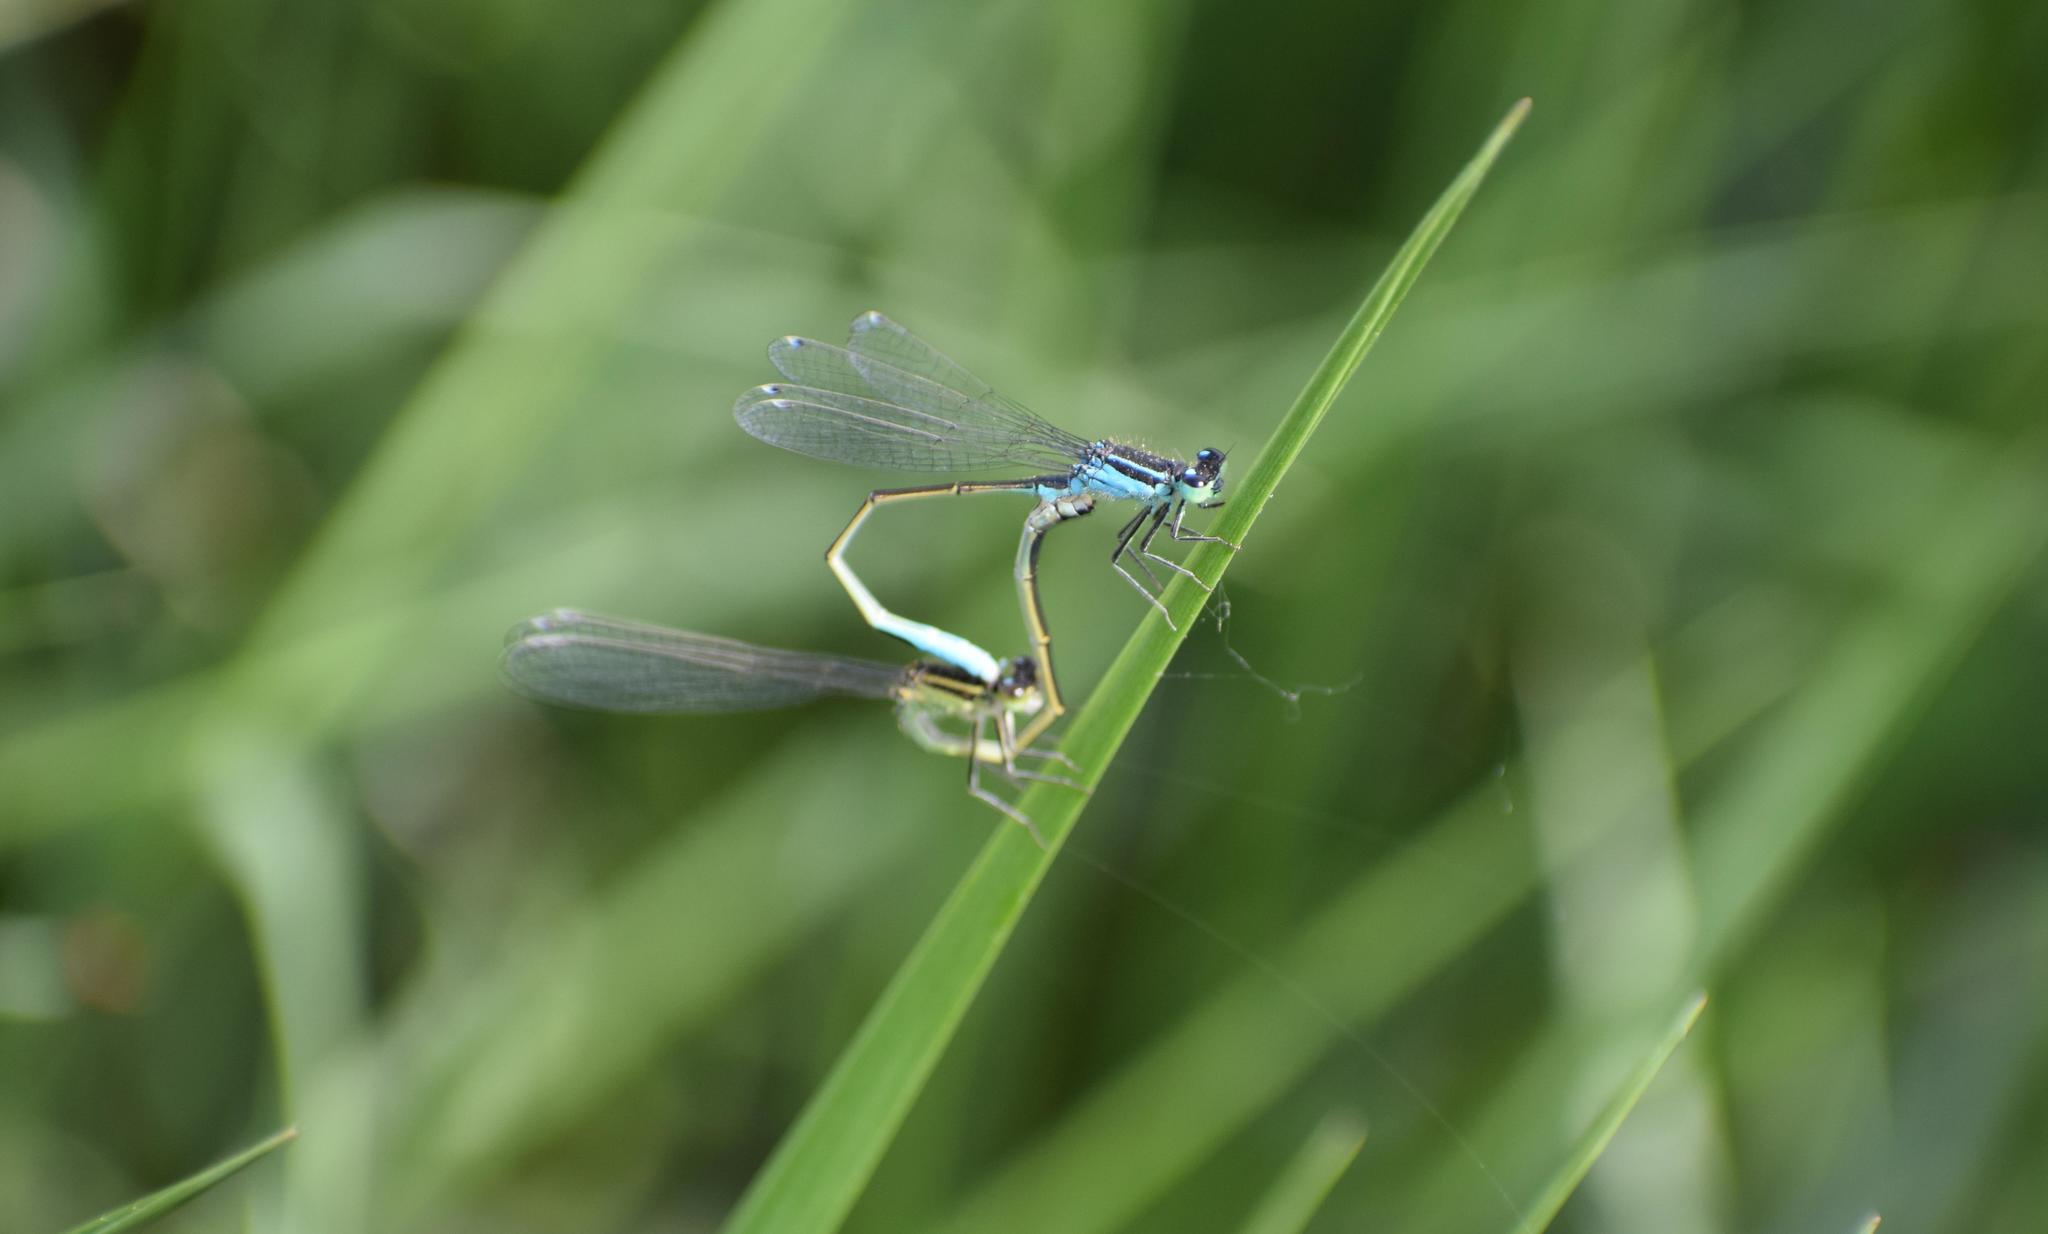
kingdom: Animalia
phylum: Arthropoda
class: Insecta
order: Odonata
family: Coenagrionidae
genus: Ischnura
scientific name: Ischnura elegans
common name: Blue-tailed damselfly
